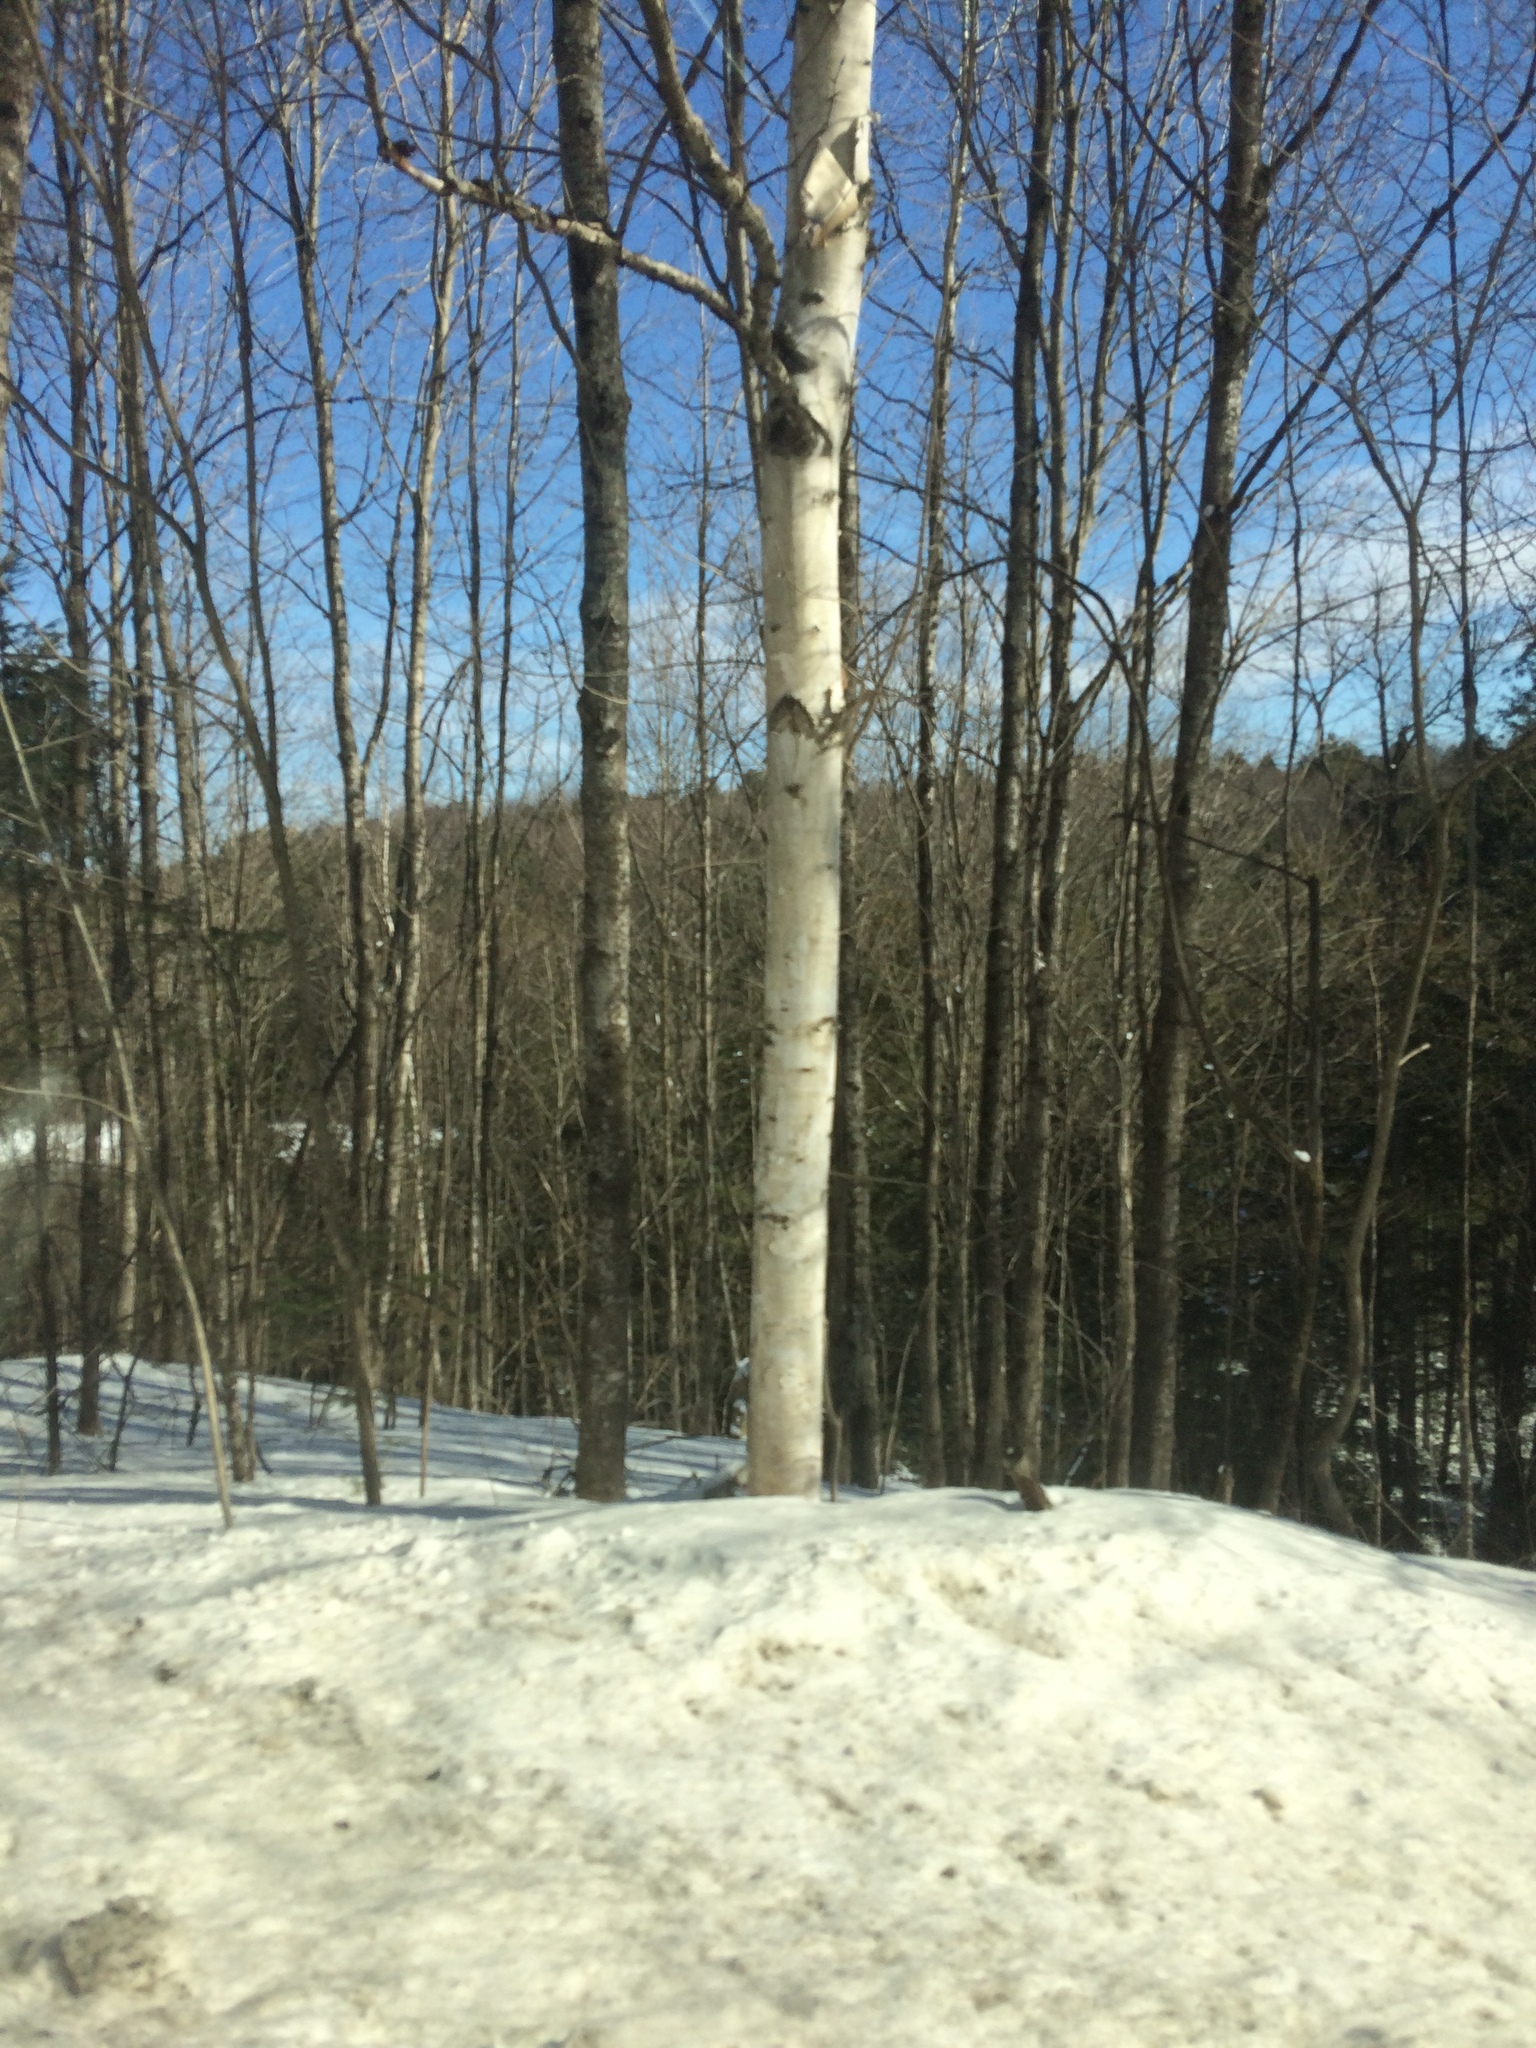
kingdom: Plantae
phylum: Tracheophyta
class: Magnoliopsida
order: Fagales
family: Betulaceae
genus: Betula
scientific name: Betula papyrifera
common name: Paper birch
